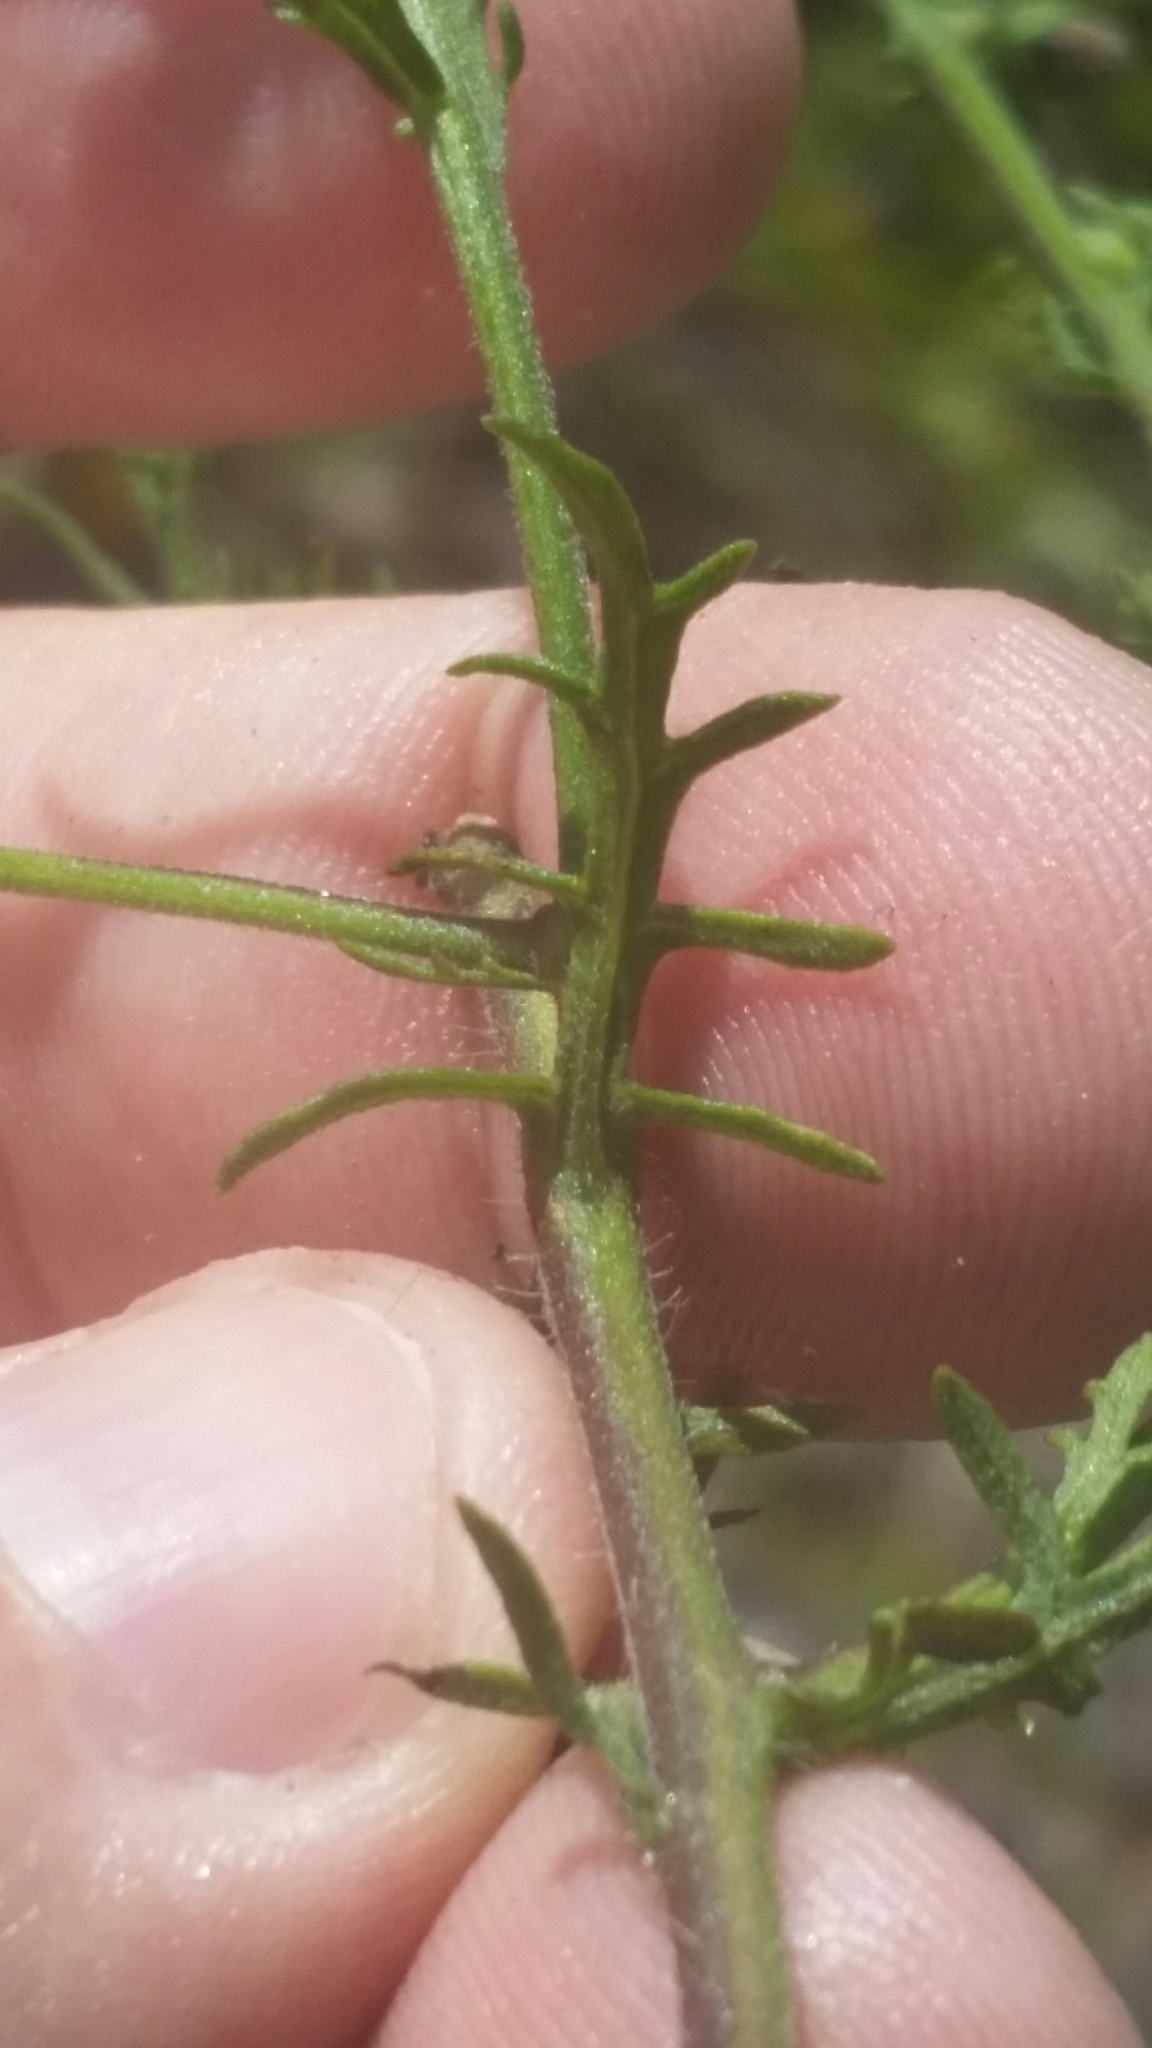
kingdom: Plantae
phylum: Tracheophyta
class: Magnoliopsida
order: Lamiales
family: Orobanchaceae
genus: Seymeria
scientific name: Seymeria pectinata
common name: Piedmont black-senna
